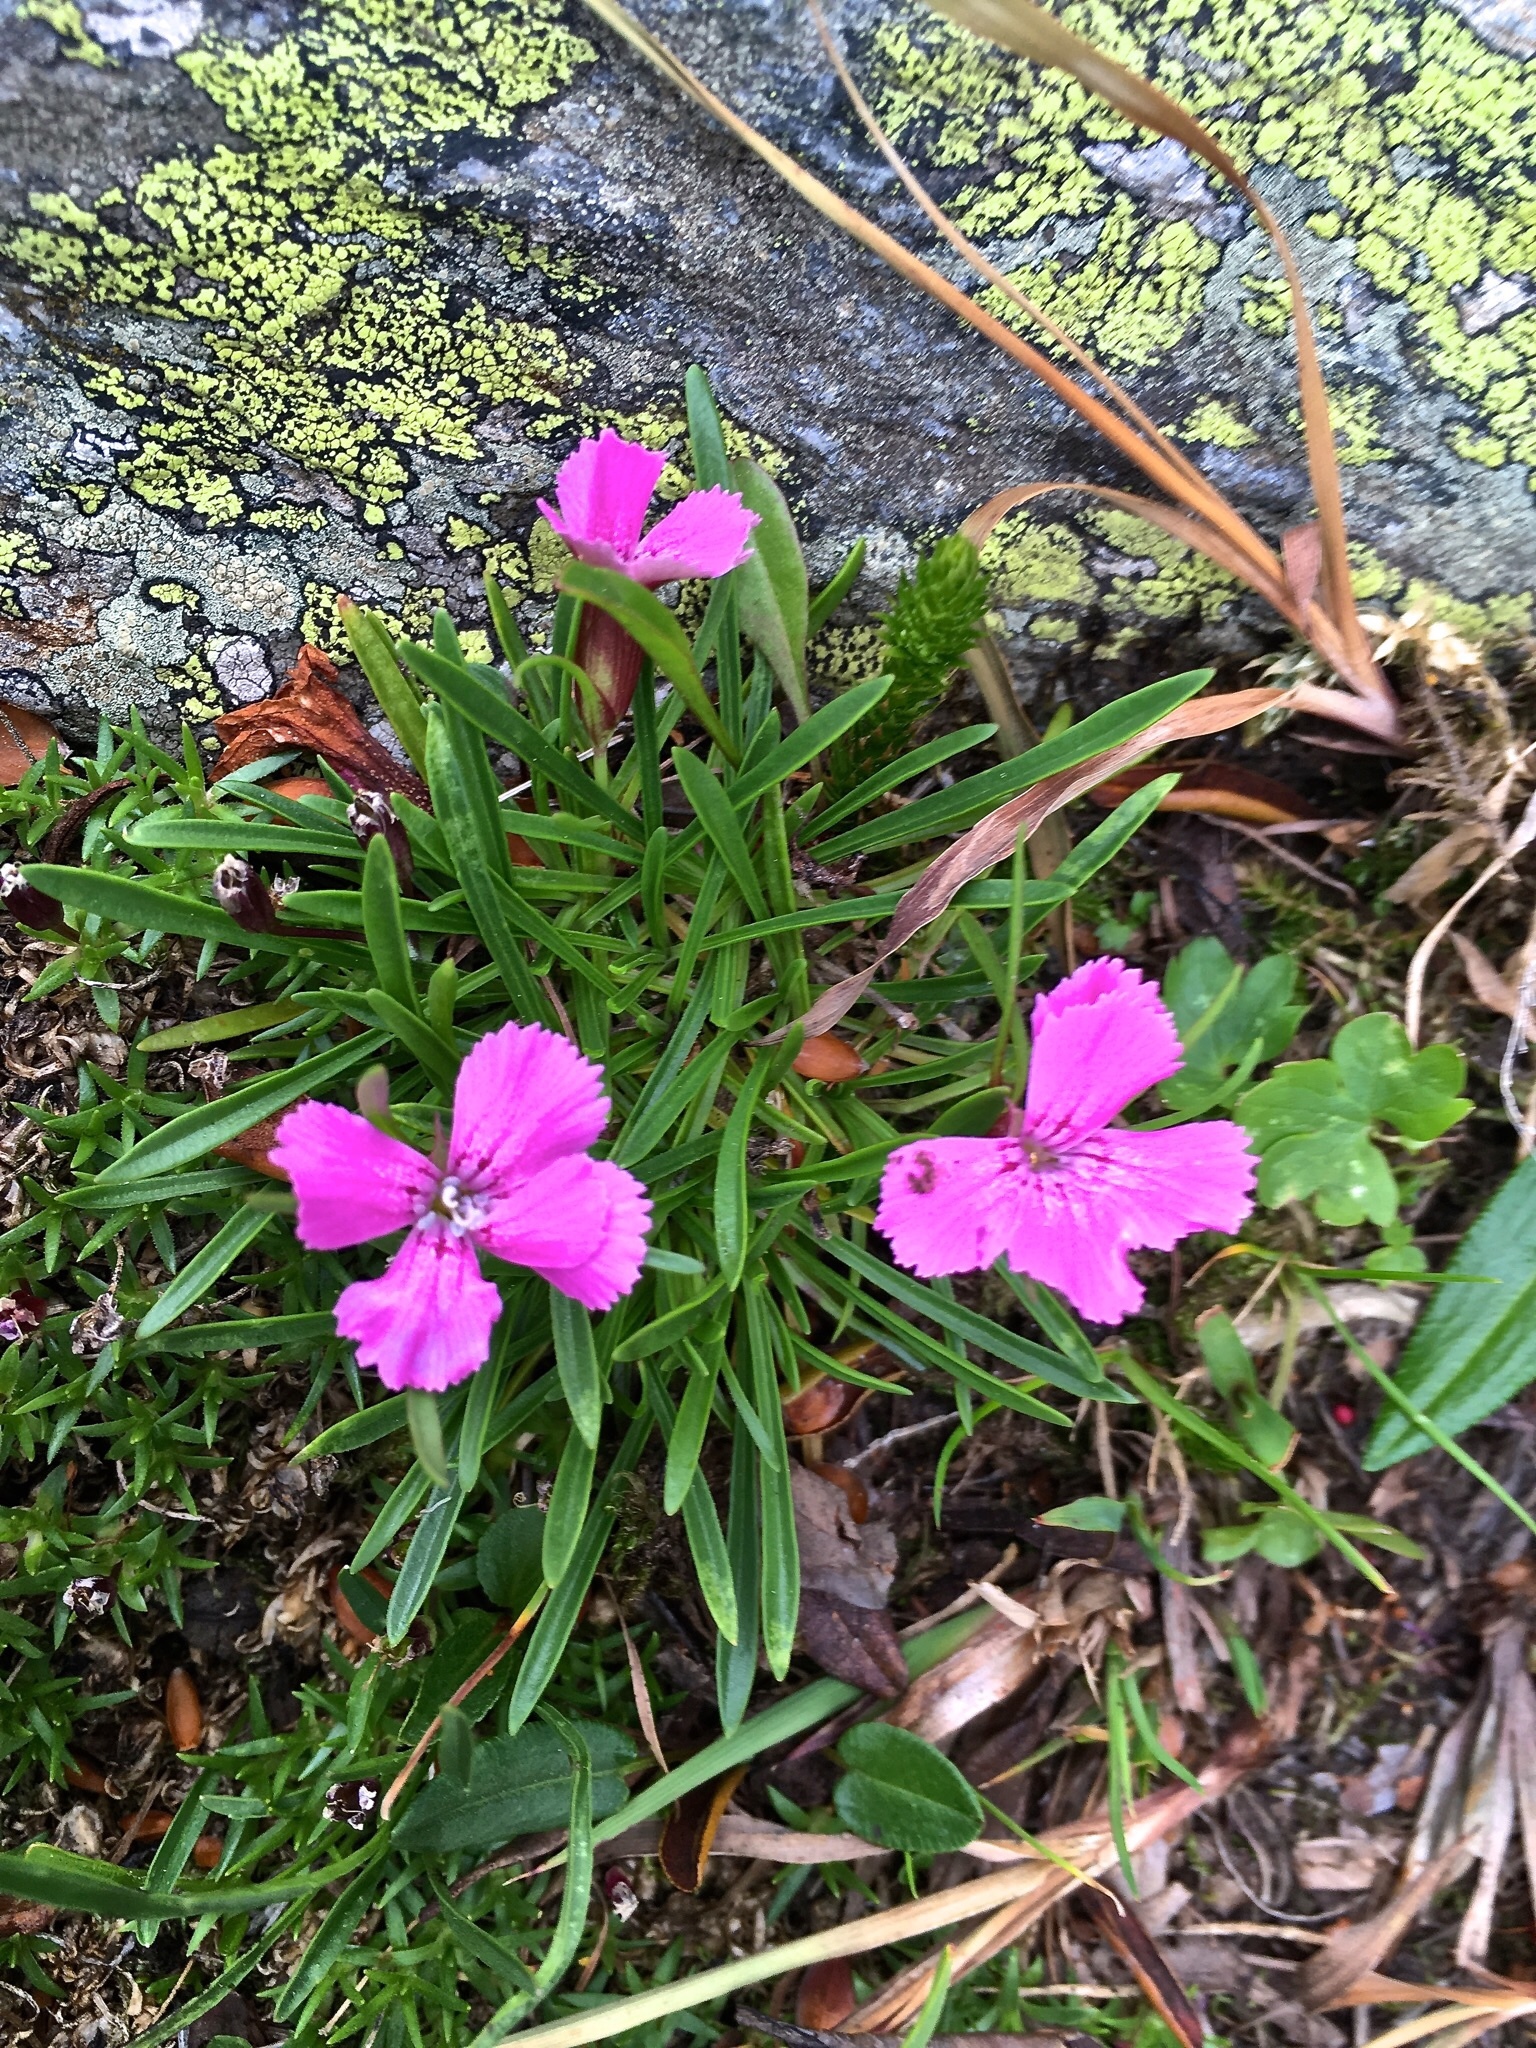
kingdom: Plantae
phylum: Tracheophyta
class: Magnoliopsida
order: Caryophyllales
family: Caryophyllaceae
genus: Dianthus
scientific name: Dianthus glacialis
